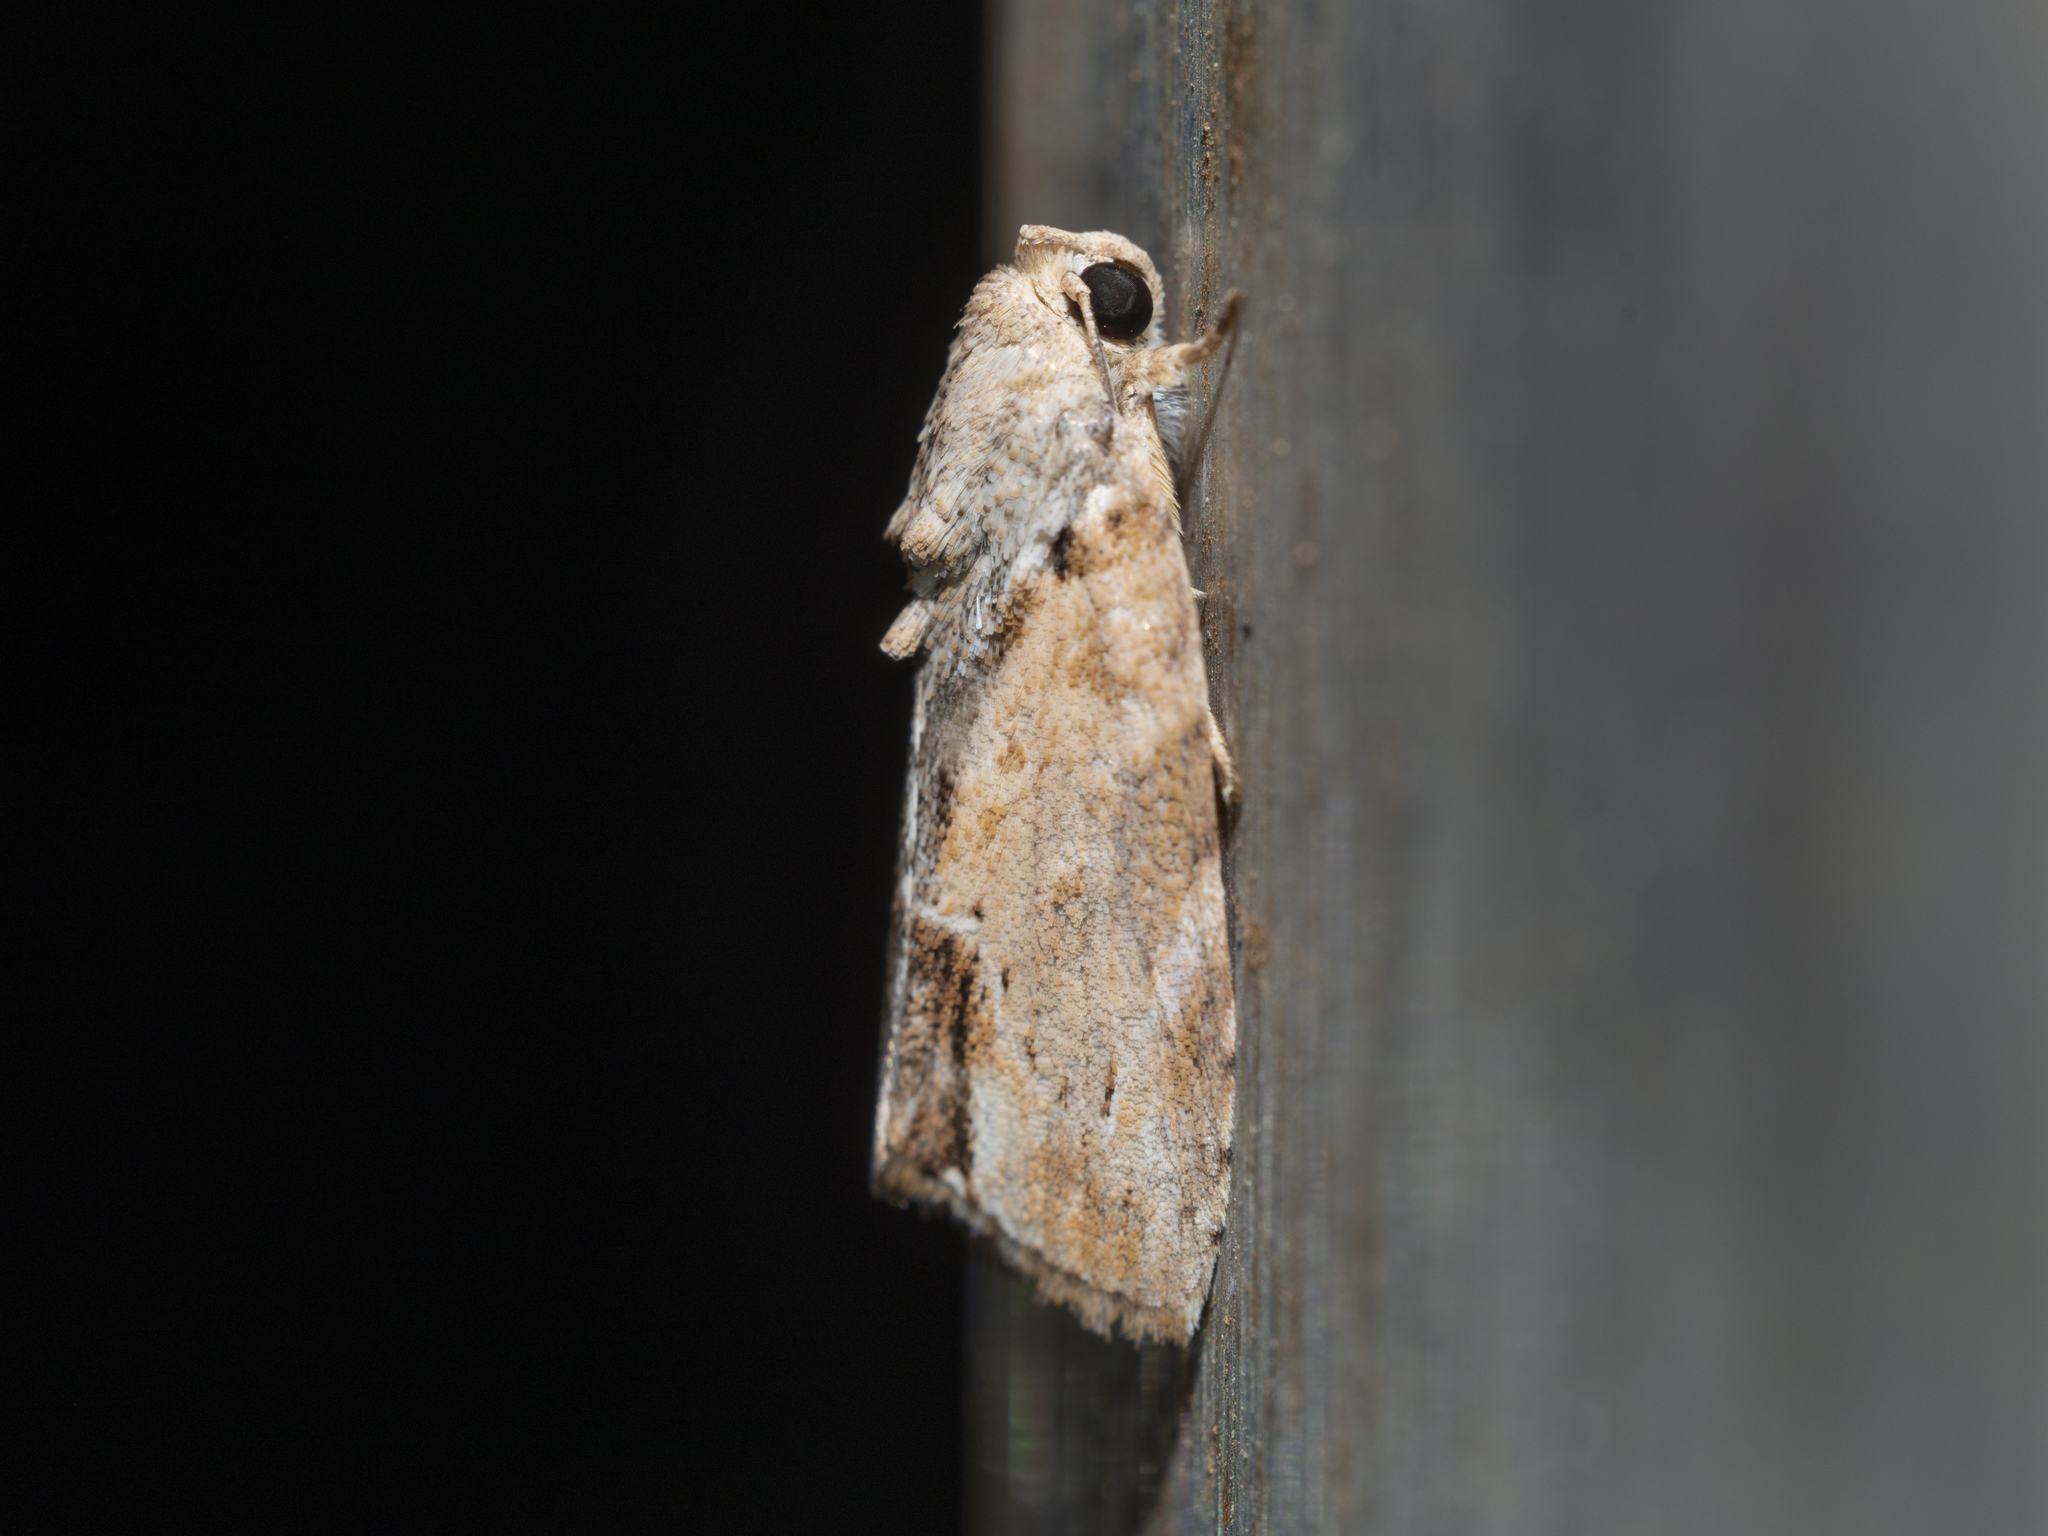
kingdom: Animalia
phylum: Arthropoda
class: Insecta
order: Lepidoptera
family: Nolidae
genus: Etanna
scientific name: Etanna breviuscula
